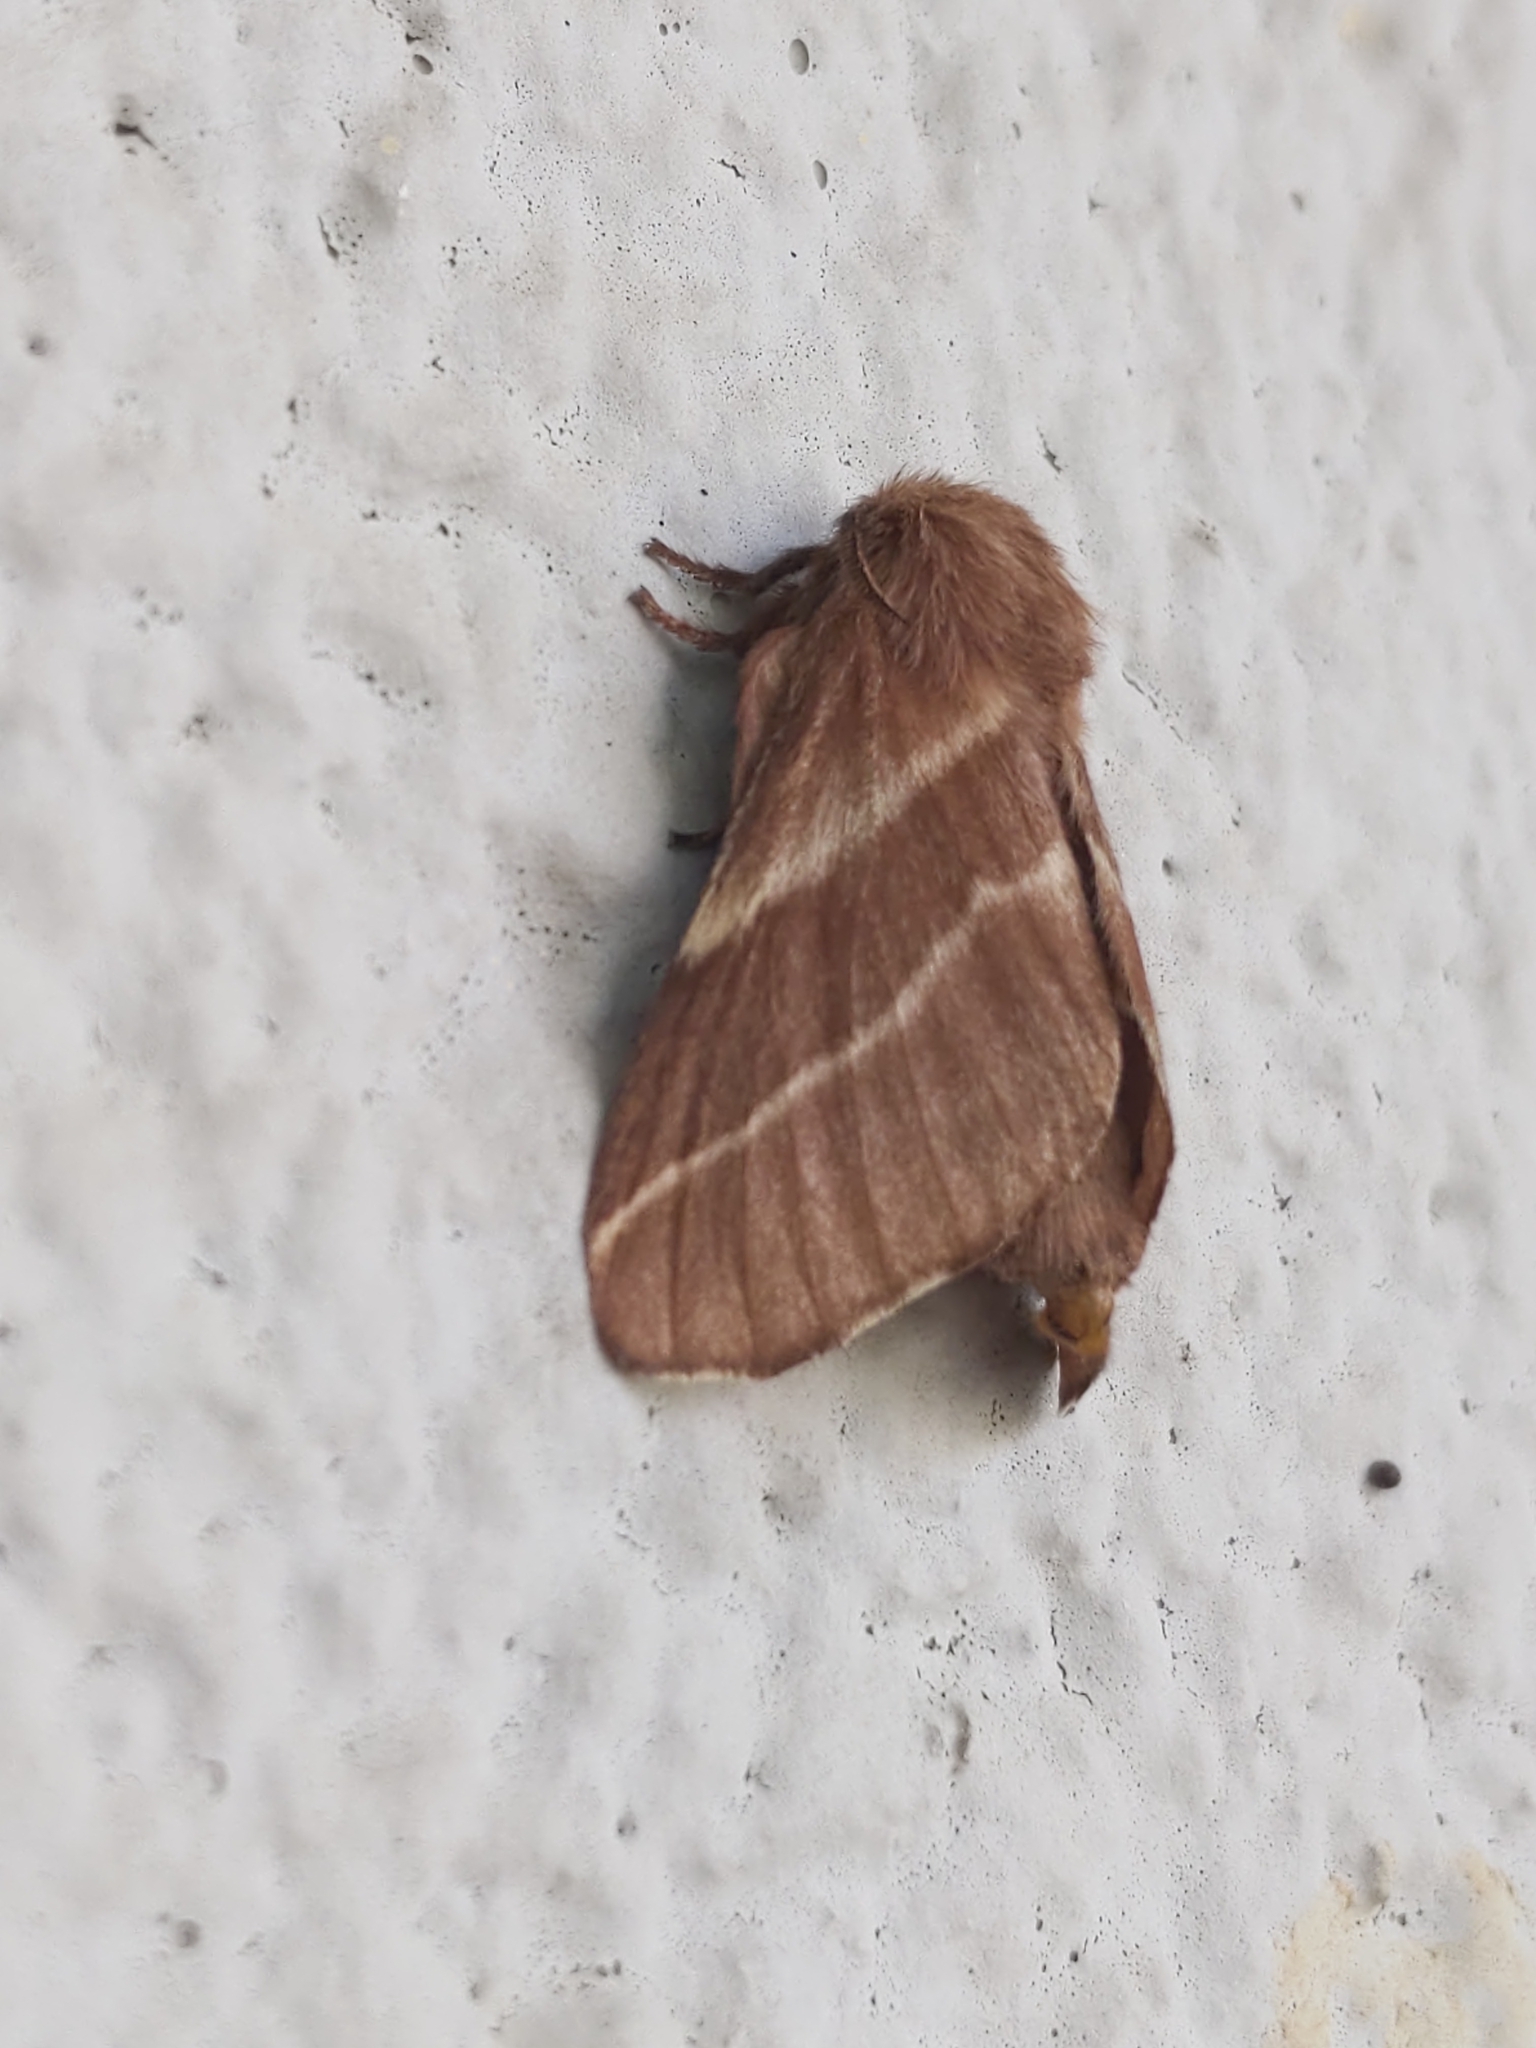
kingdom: Animalia
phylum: Arthropoda
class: Insecta
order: Lepidoptera
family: Lasiocampidae
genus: Malacosoma
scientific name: Malacosoma americana
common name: Eastern tent caterpillar moth
